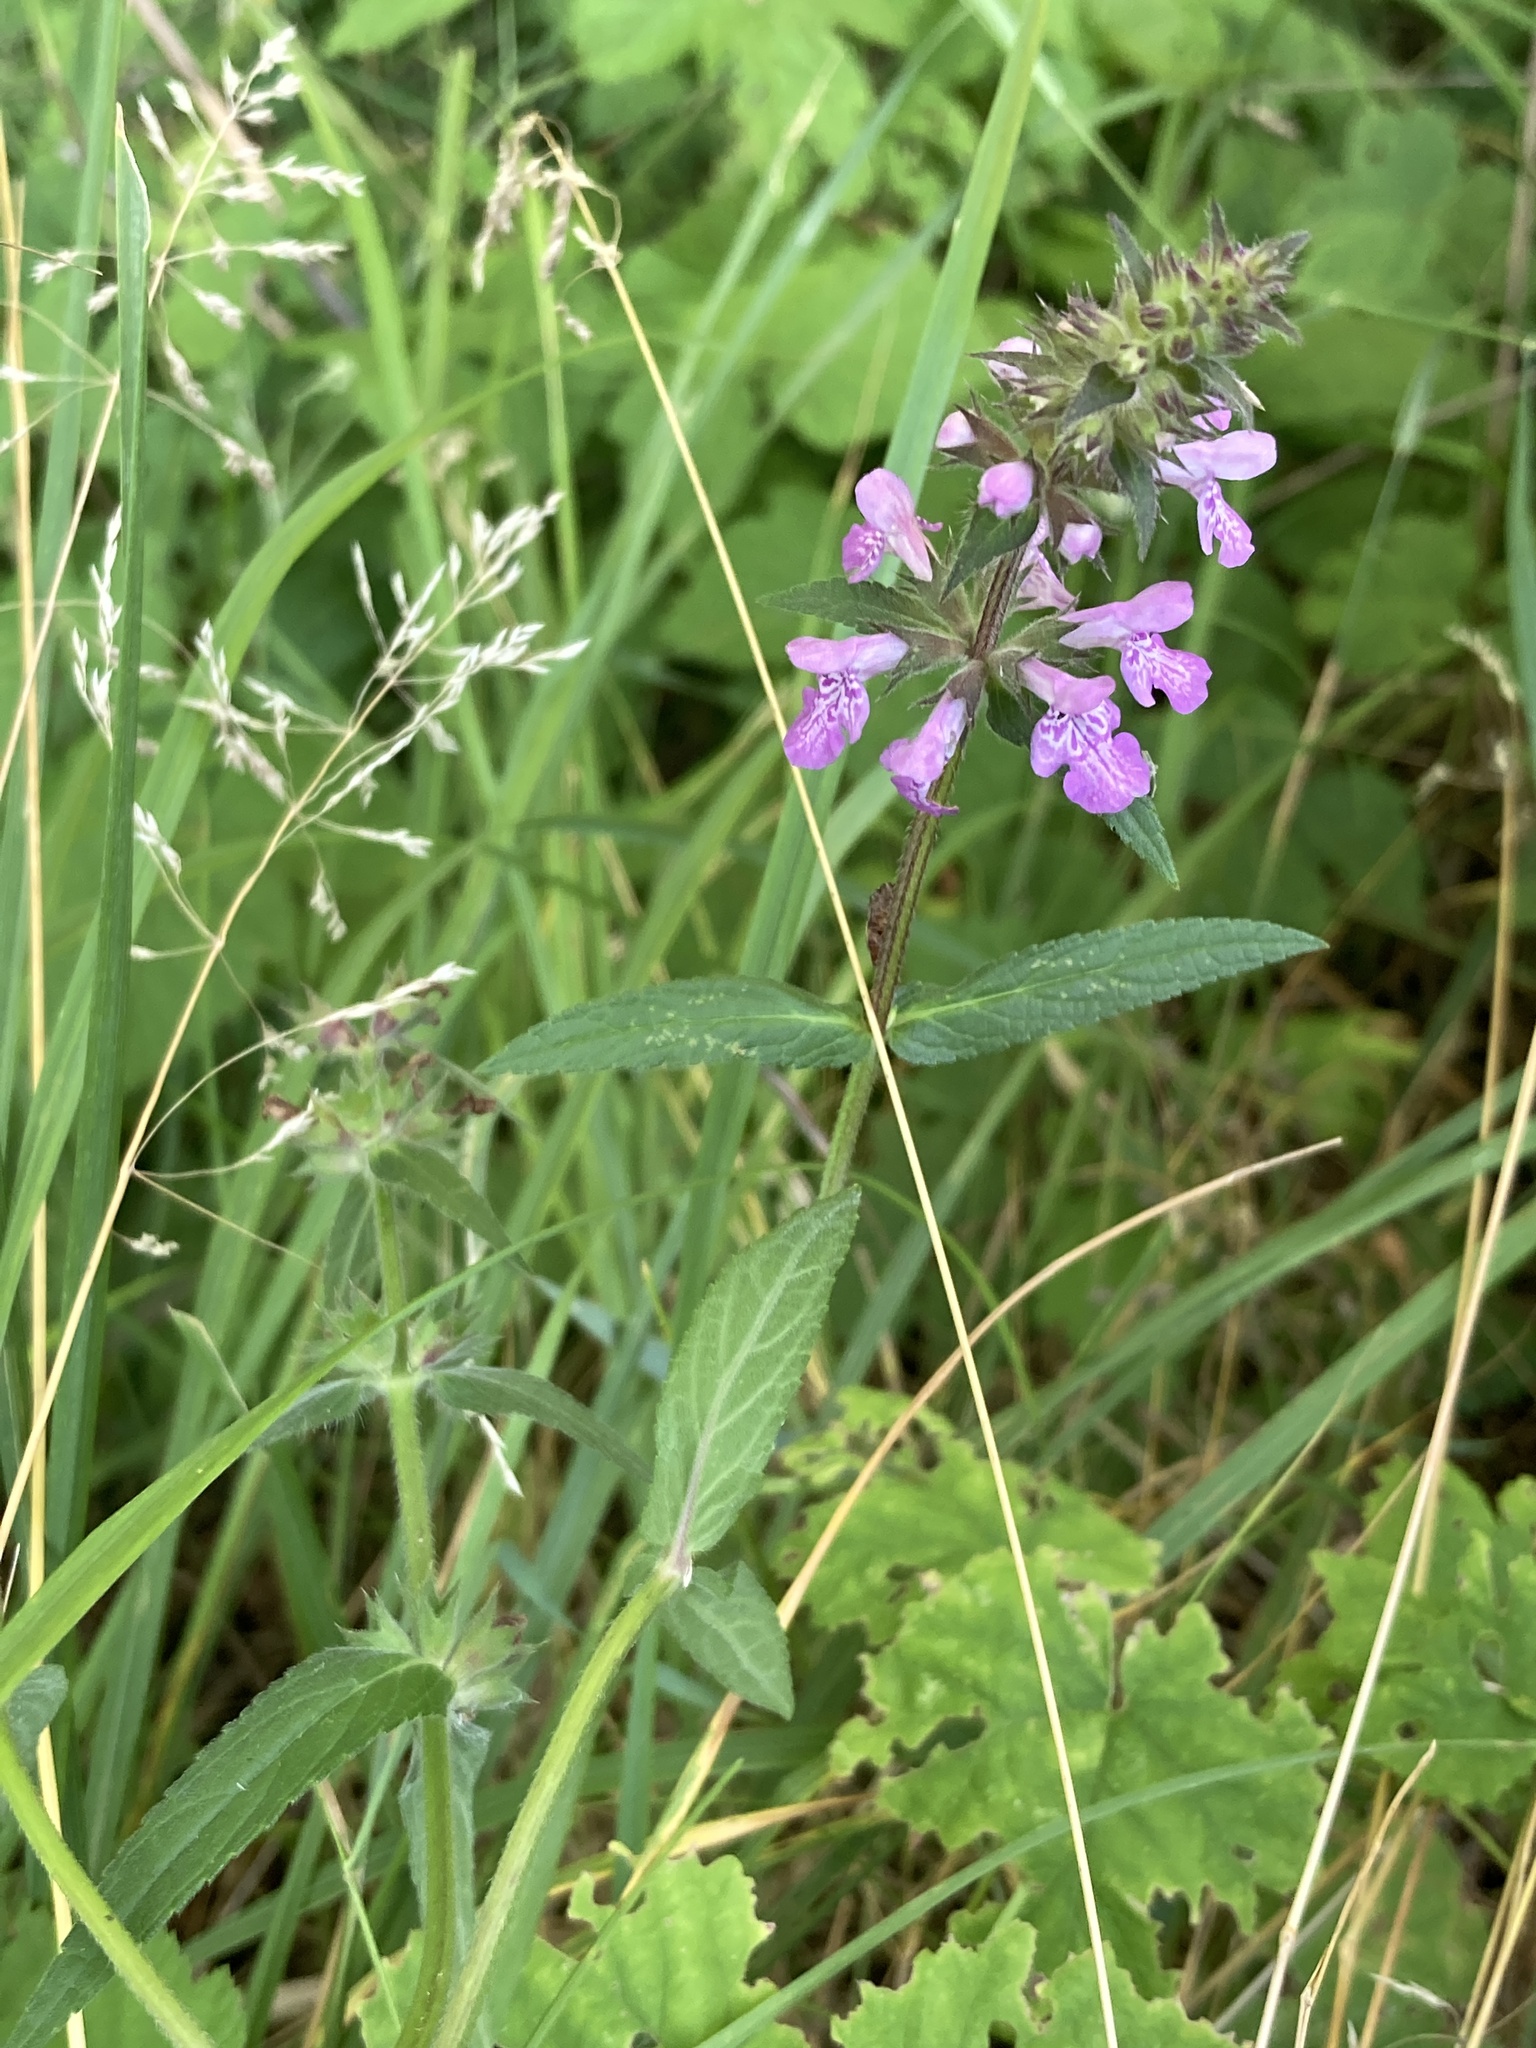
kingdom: Plantae
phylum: Tracheophyta
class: Magnoliopsida
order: Lamiales
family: Lamiaceae
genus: Stachys
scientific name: Stachys palustris
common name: Marsh woundwort
